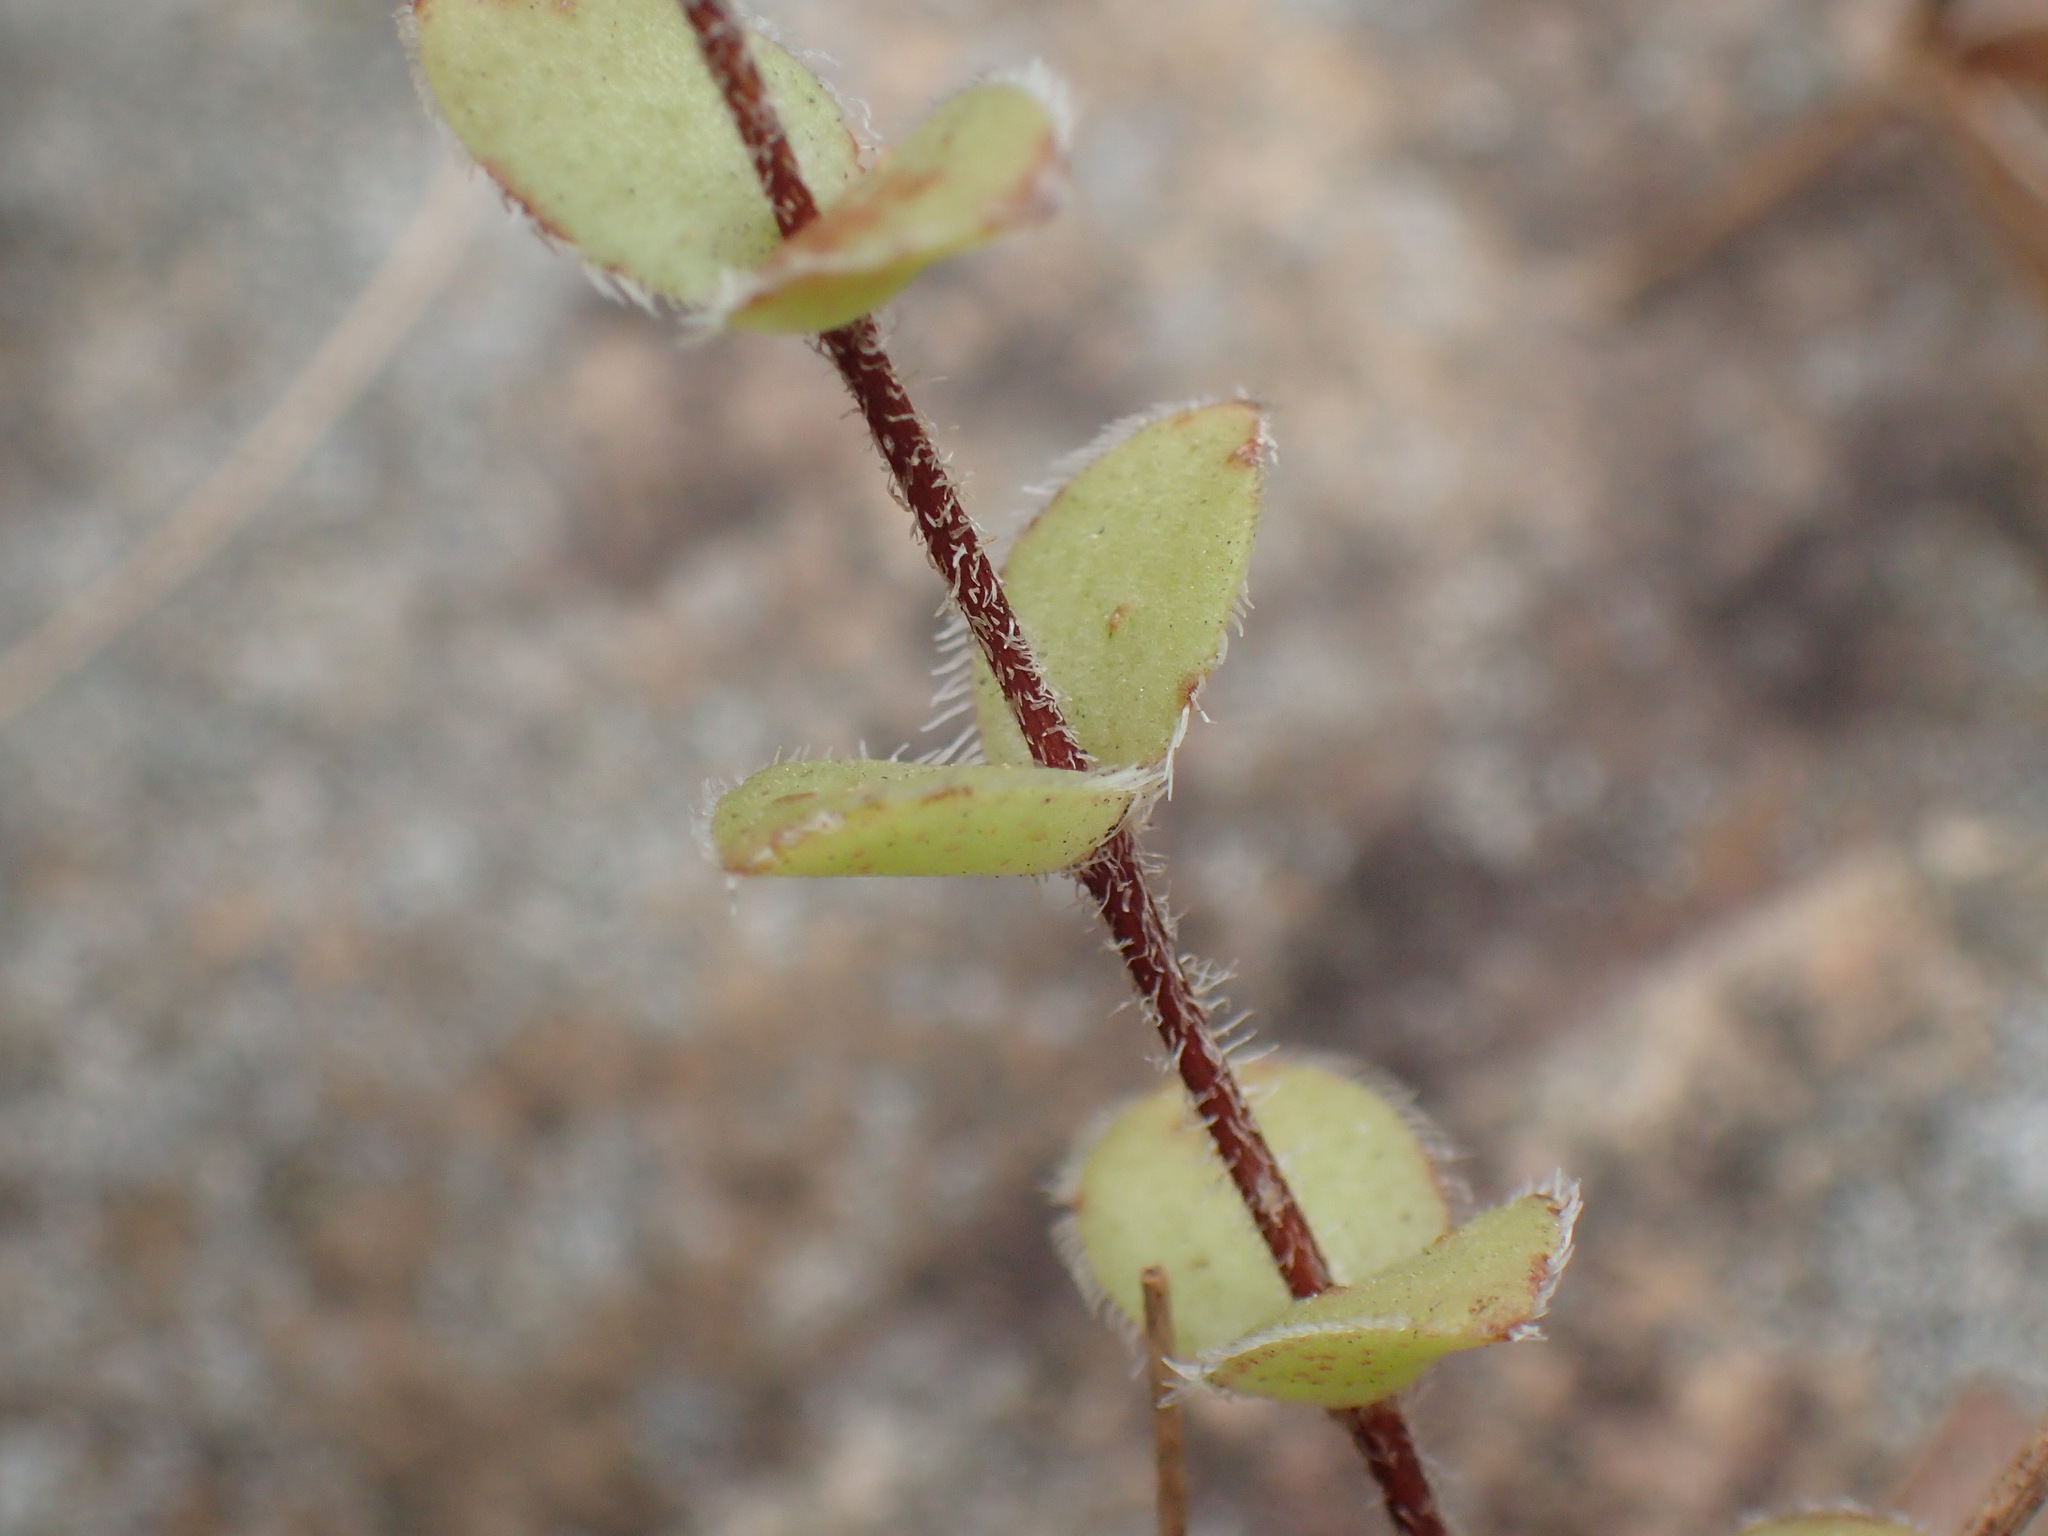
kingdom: Plantae
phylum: Tracheophyta
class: Magnoliopsida
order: Saxifragales
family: Crassulaceae
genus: Crassula
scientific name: Crassula obovata
